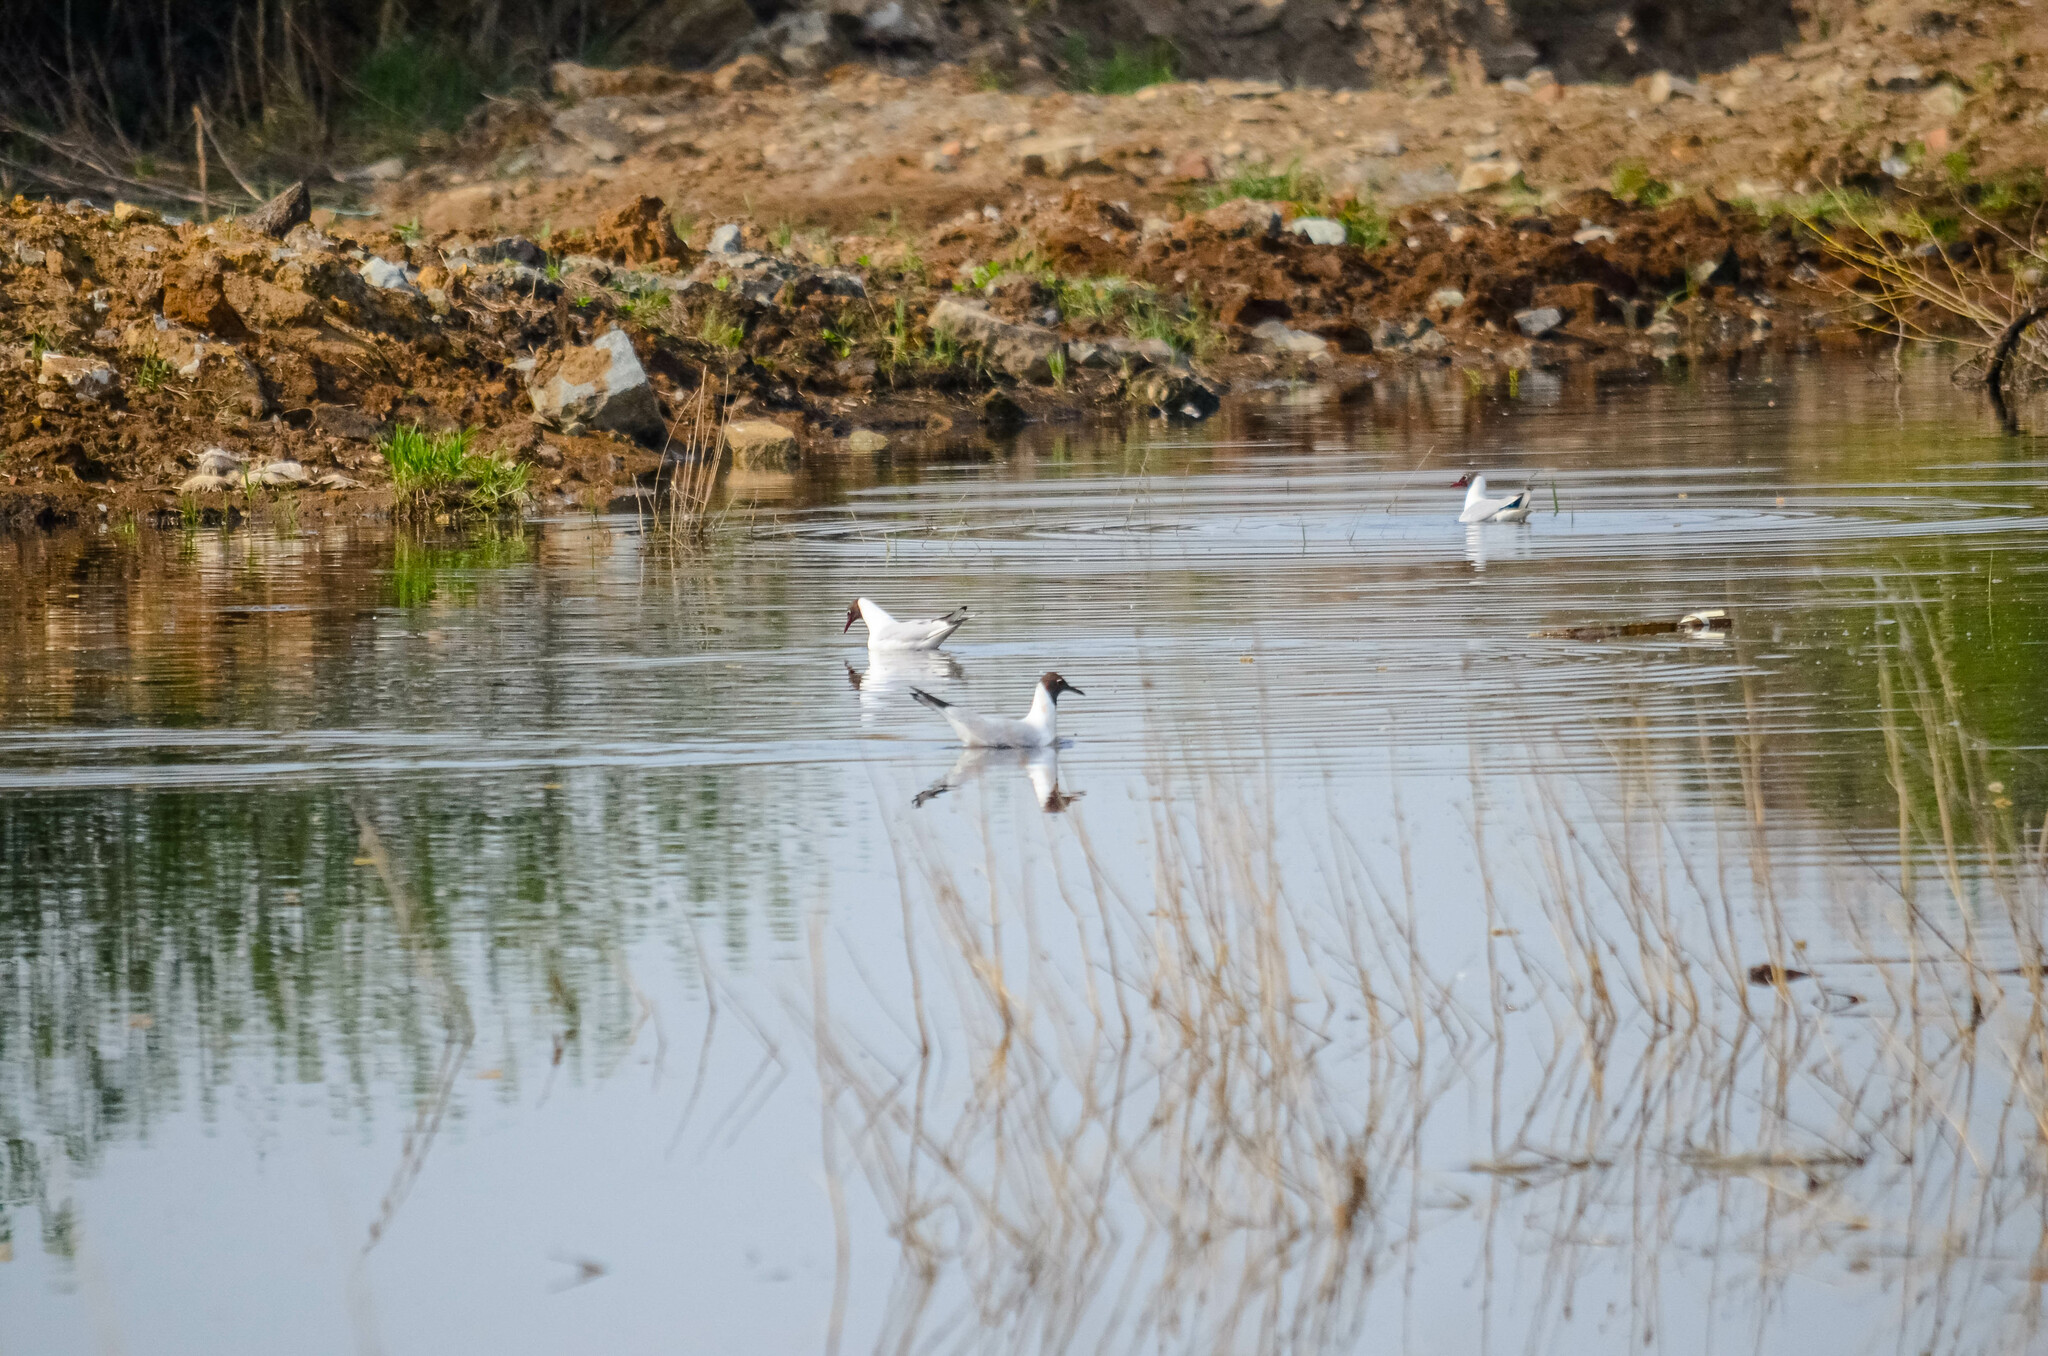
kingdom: Animalia
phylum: Chordata
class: Aves
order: Charadriiformes
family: Laridae
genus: Chroicocephalus
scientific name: Chroicocephalus ridibundus
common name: Black-headed gull
